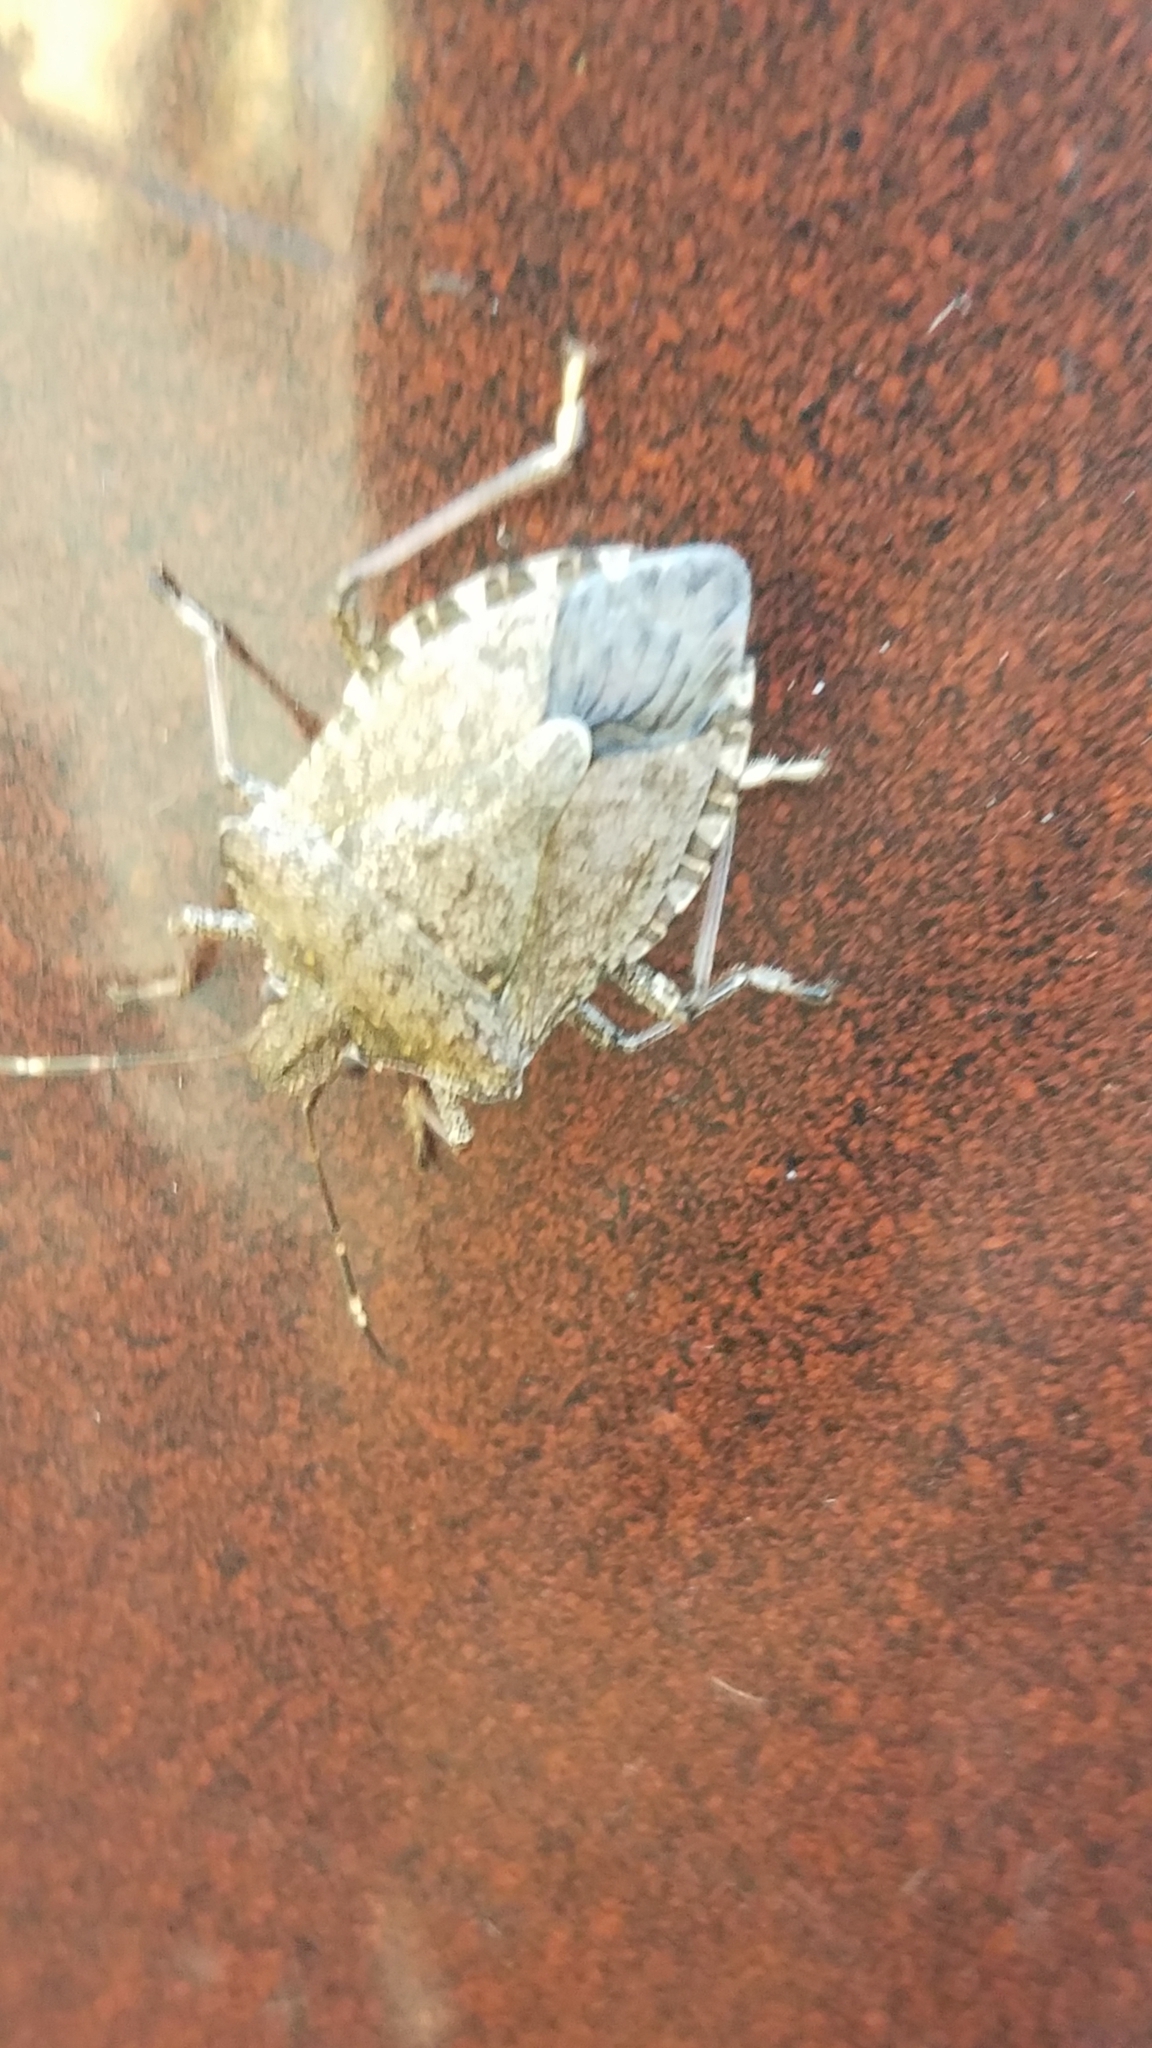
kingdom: Animalia
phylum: Arthropoda
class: Insecta
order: Hemiptera
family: Pentatomidae
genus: Halyomorpha
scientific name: Halyomorpha halys
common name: Brown marmorated stink bug
